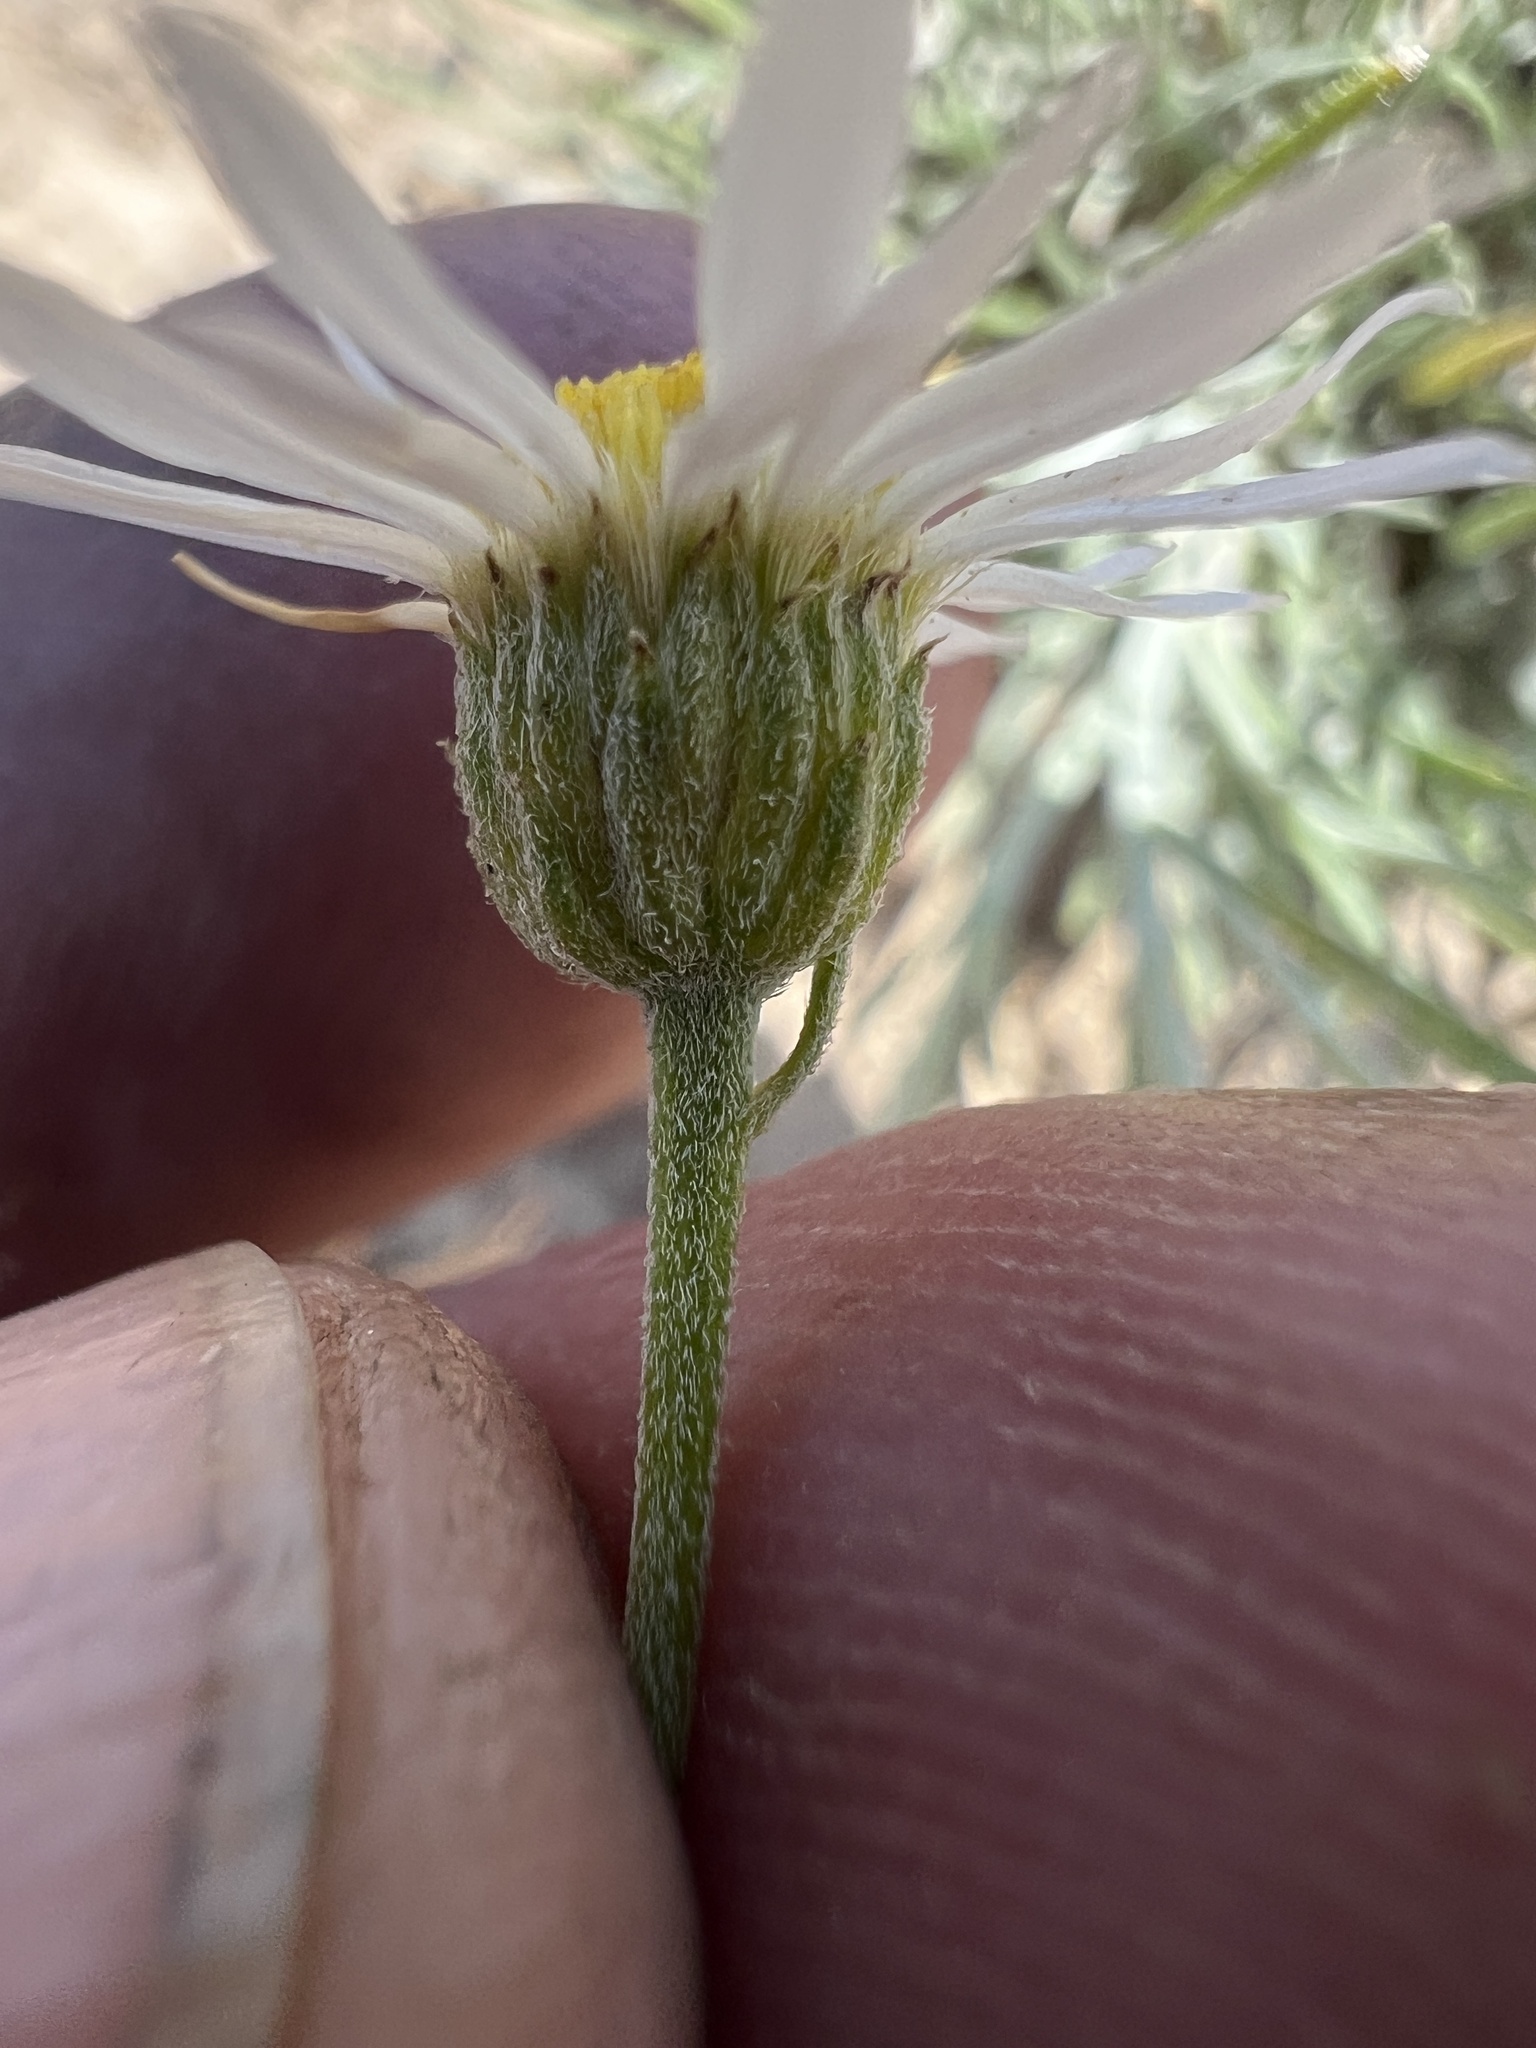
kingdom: Plantae
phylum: Tracheophyta
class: Magnoliopsida
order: Asterales
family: Asteraceae
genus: Erigeron
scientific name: Erigeron filifolius
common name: Threadleaf fleabane
